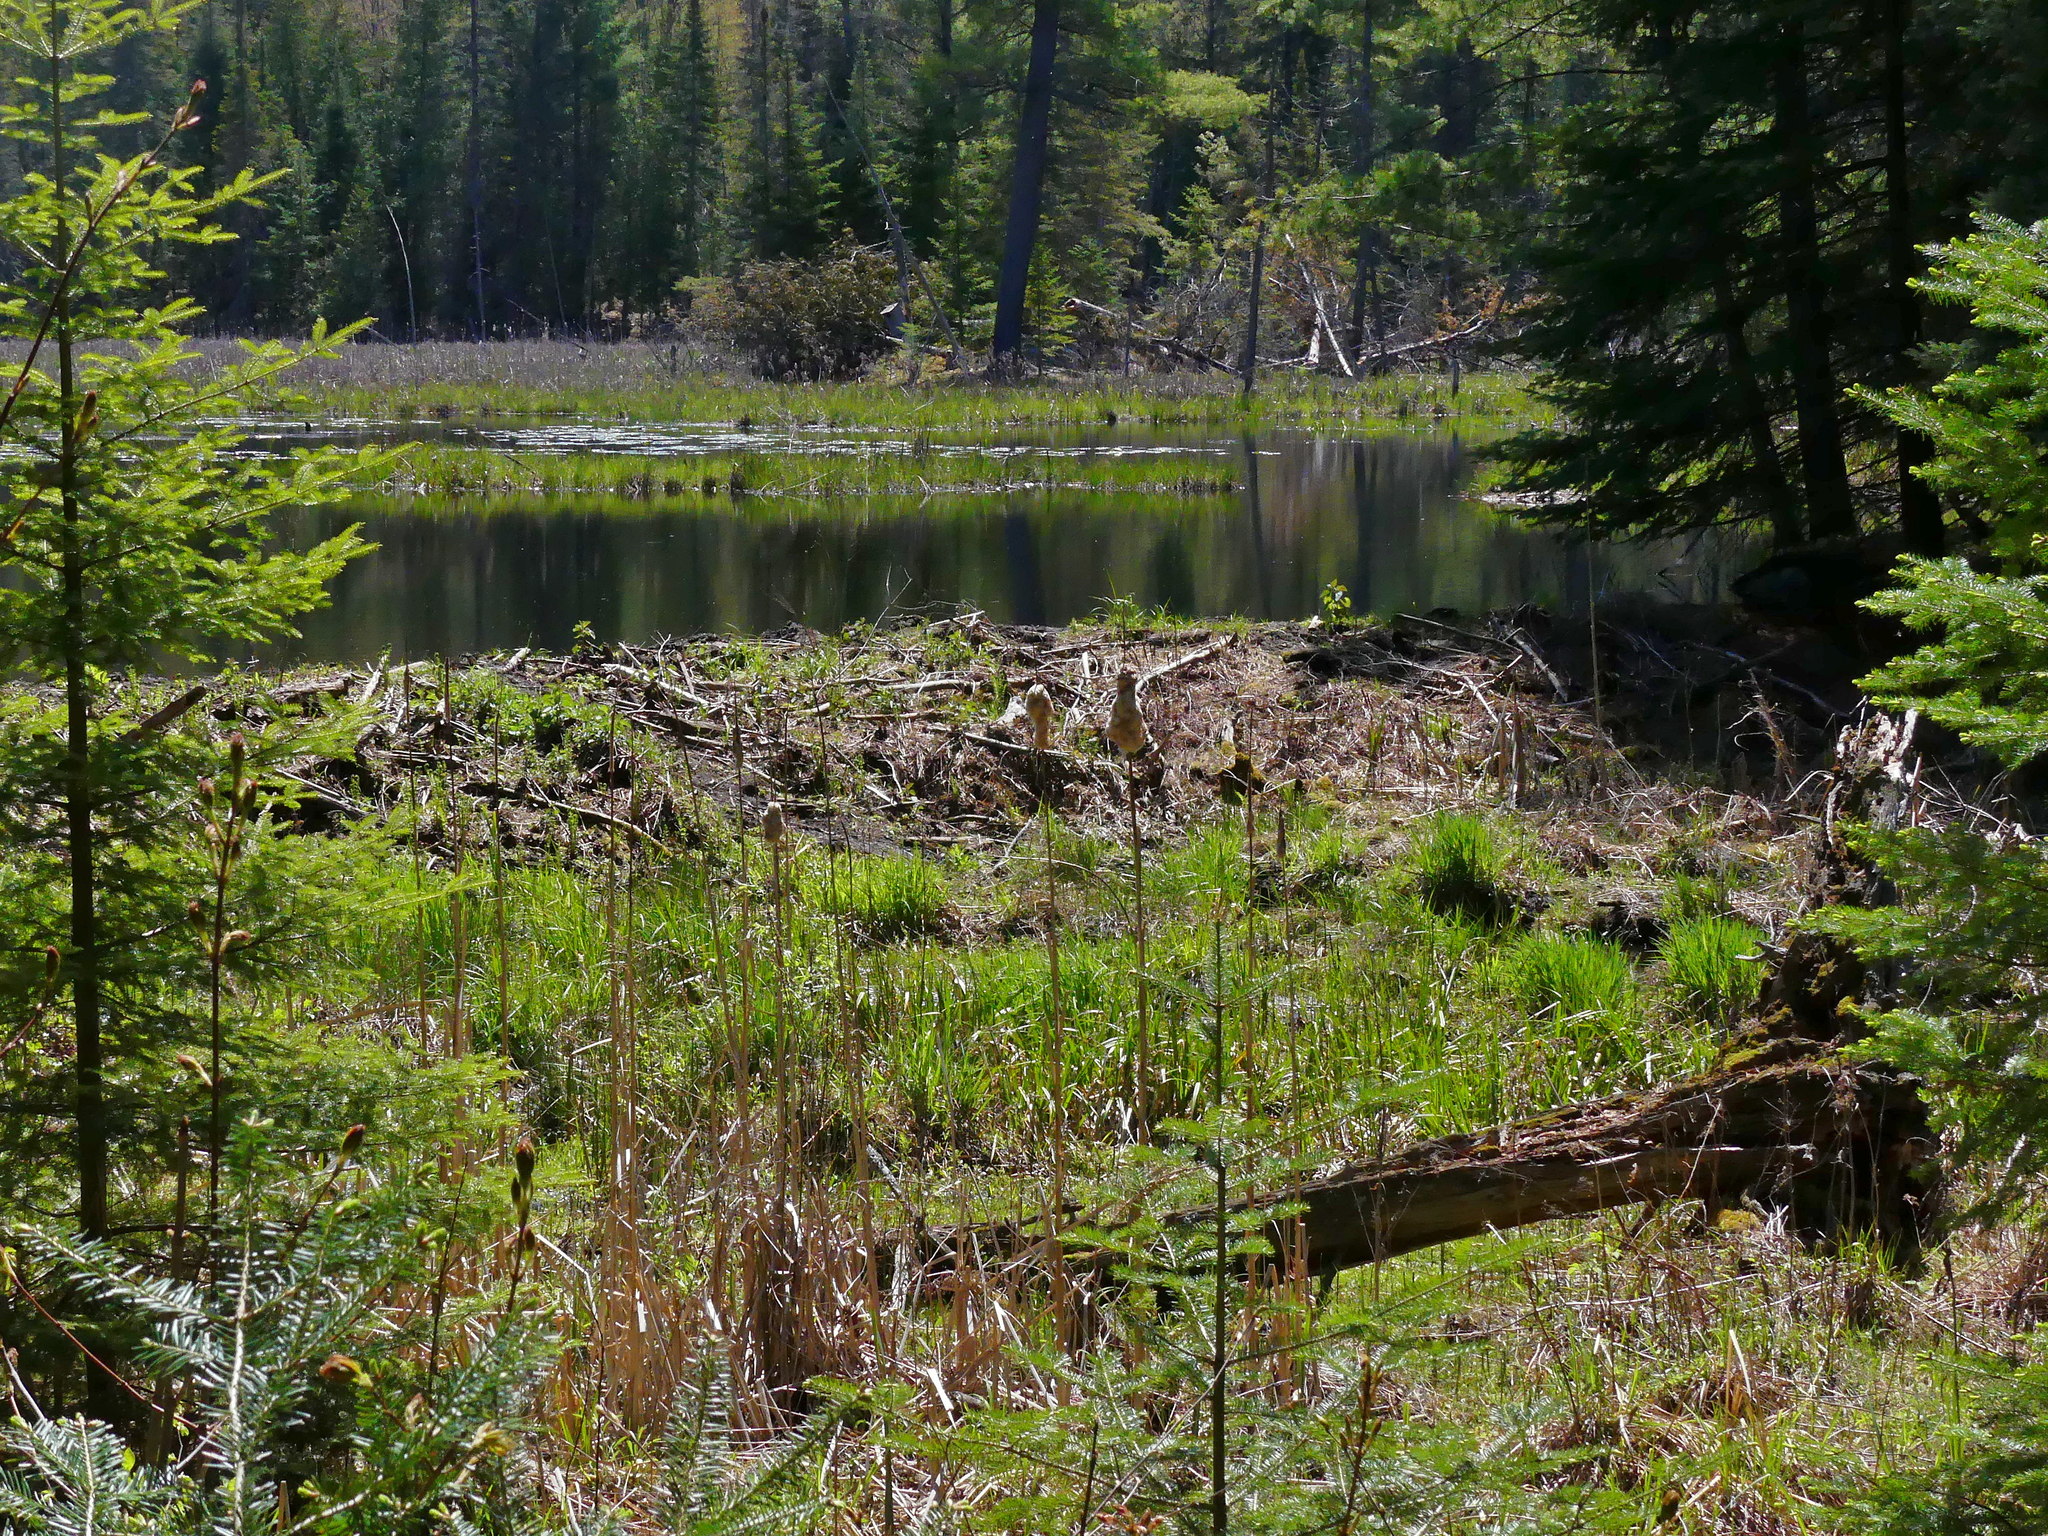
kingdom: Animalia
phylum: Chordata
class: Mammalia
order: Rodentia
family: Castoridae
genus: Castor
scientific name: Castor canadensis
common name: American beaver
